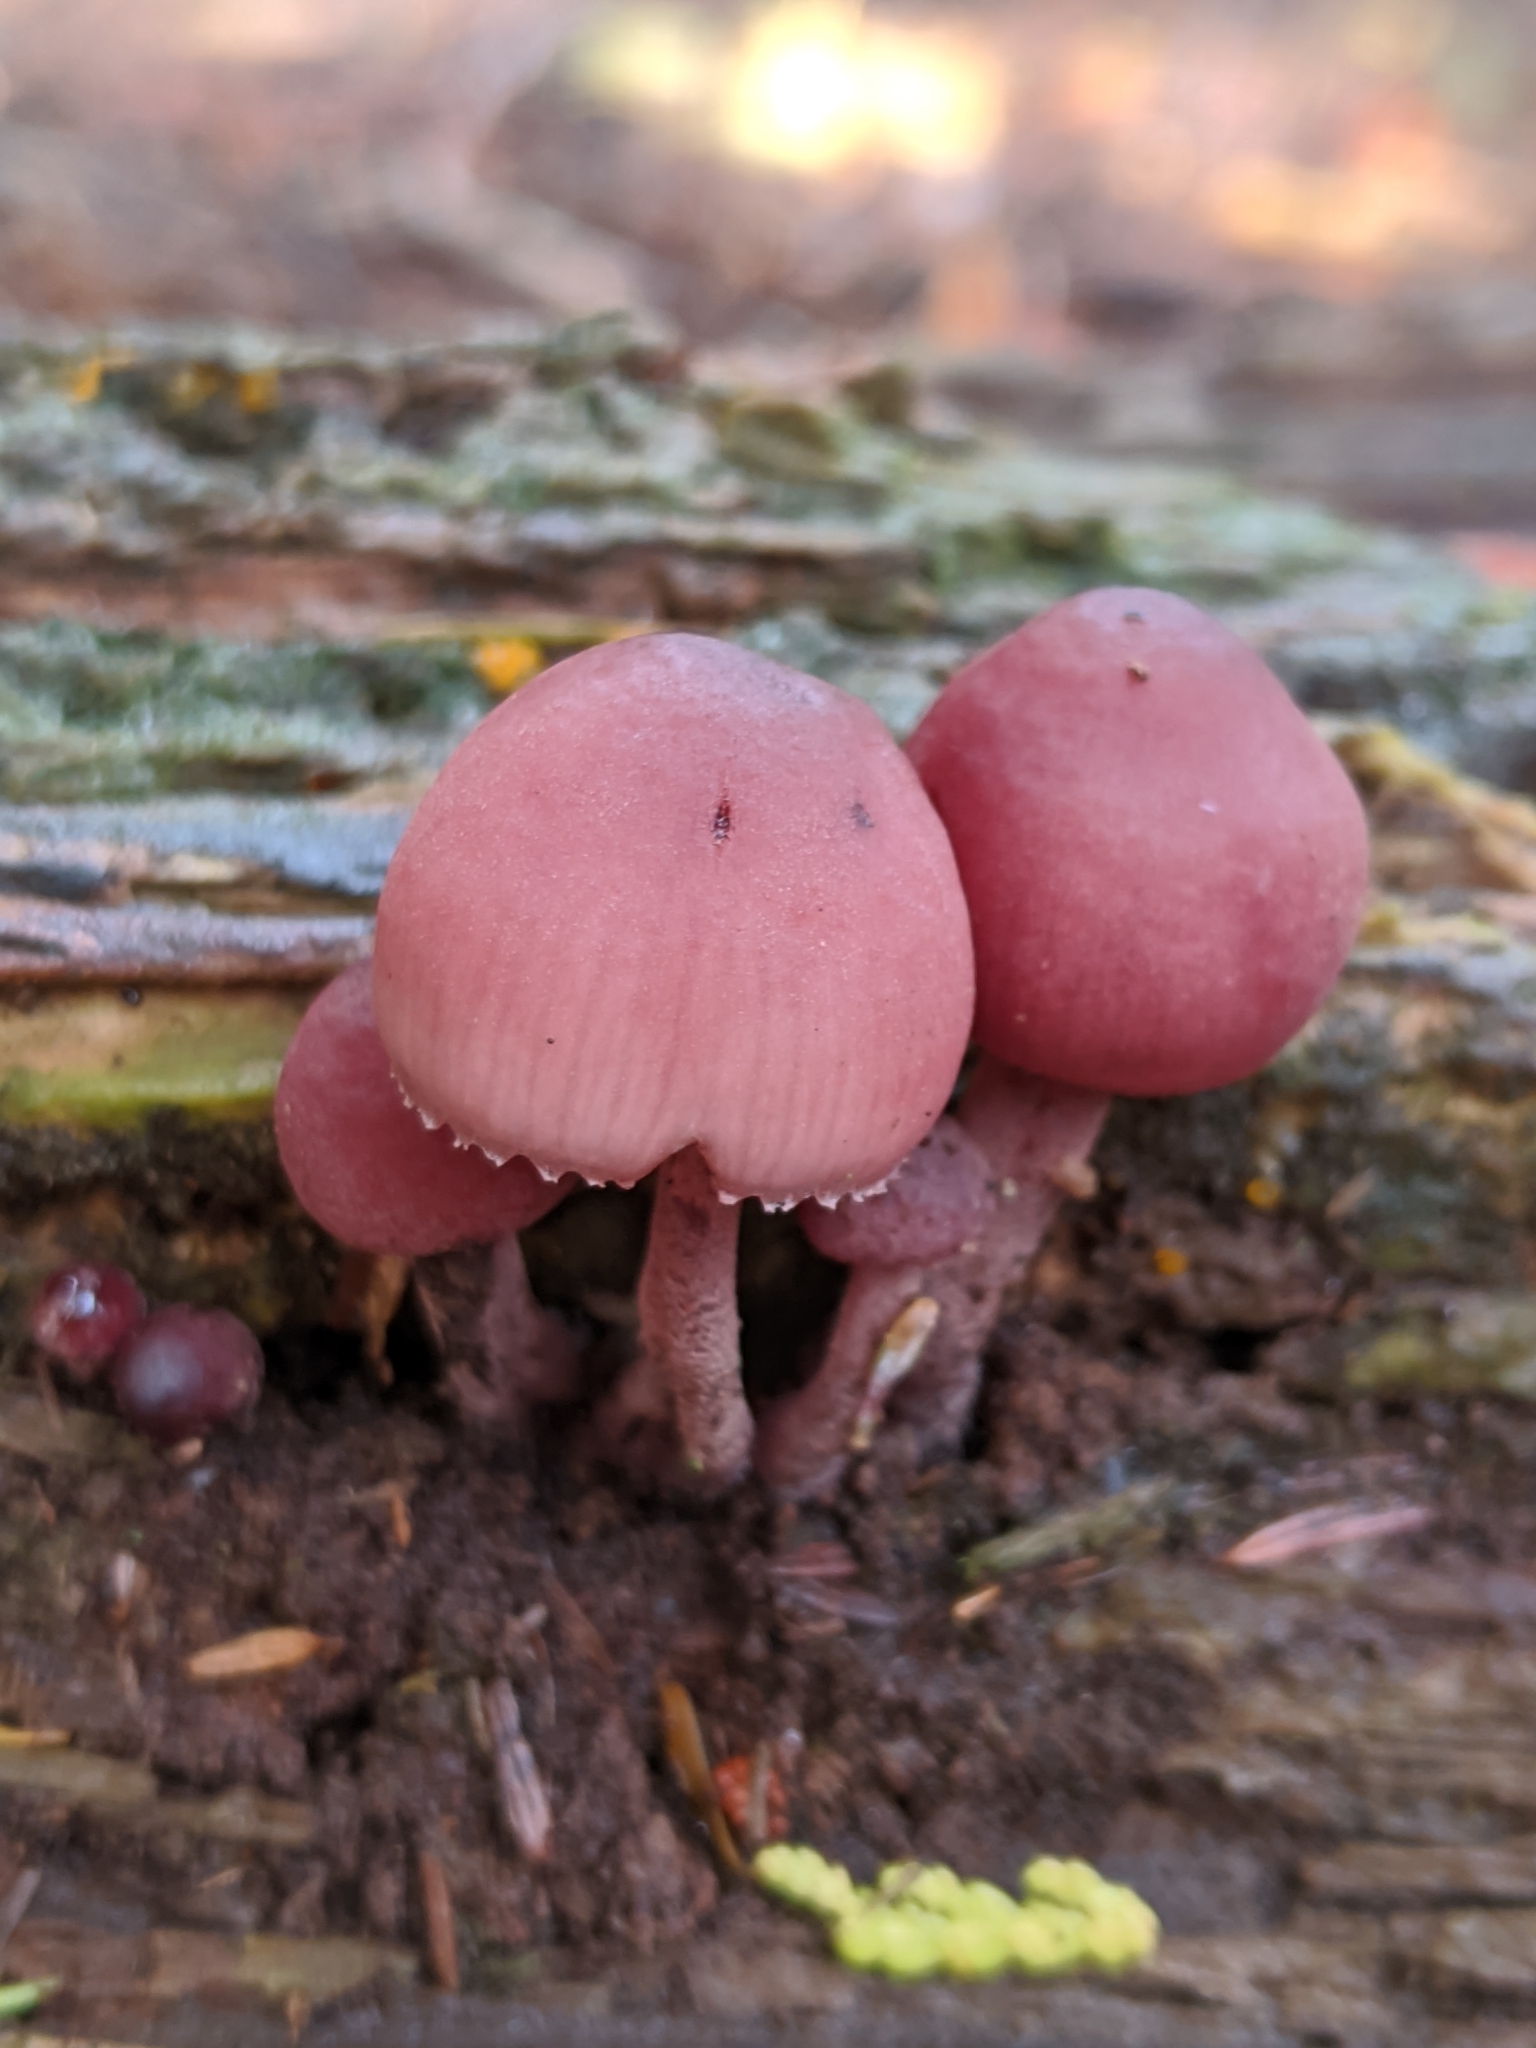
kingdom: Fungi
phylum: Basidiomycota
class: Agaricomycetes
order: Agaricales
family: Mycenaceae
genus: Mycena
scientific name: Mycena haematopus
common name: Burgundydrop bonnet
